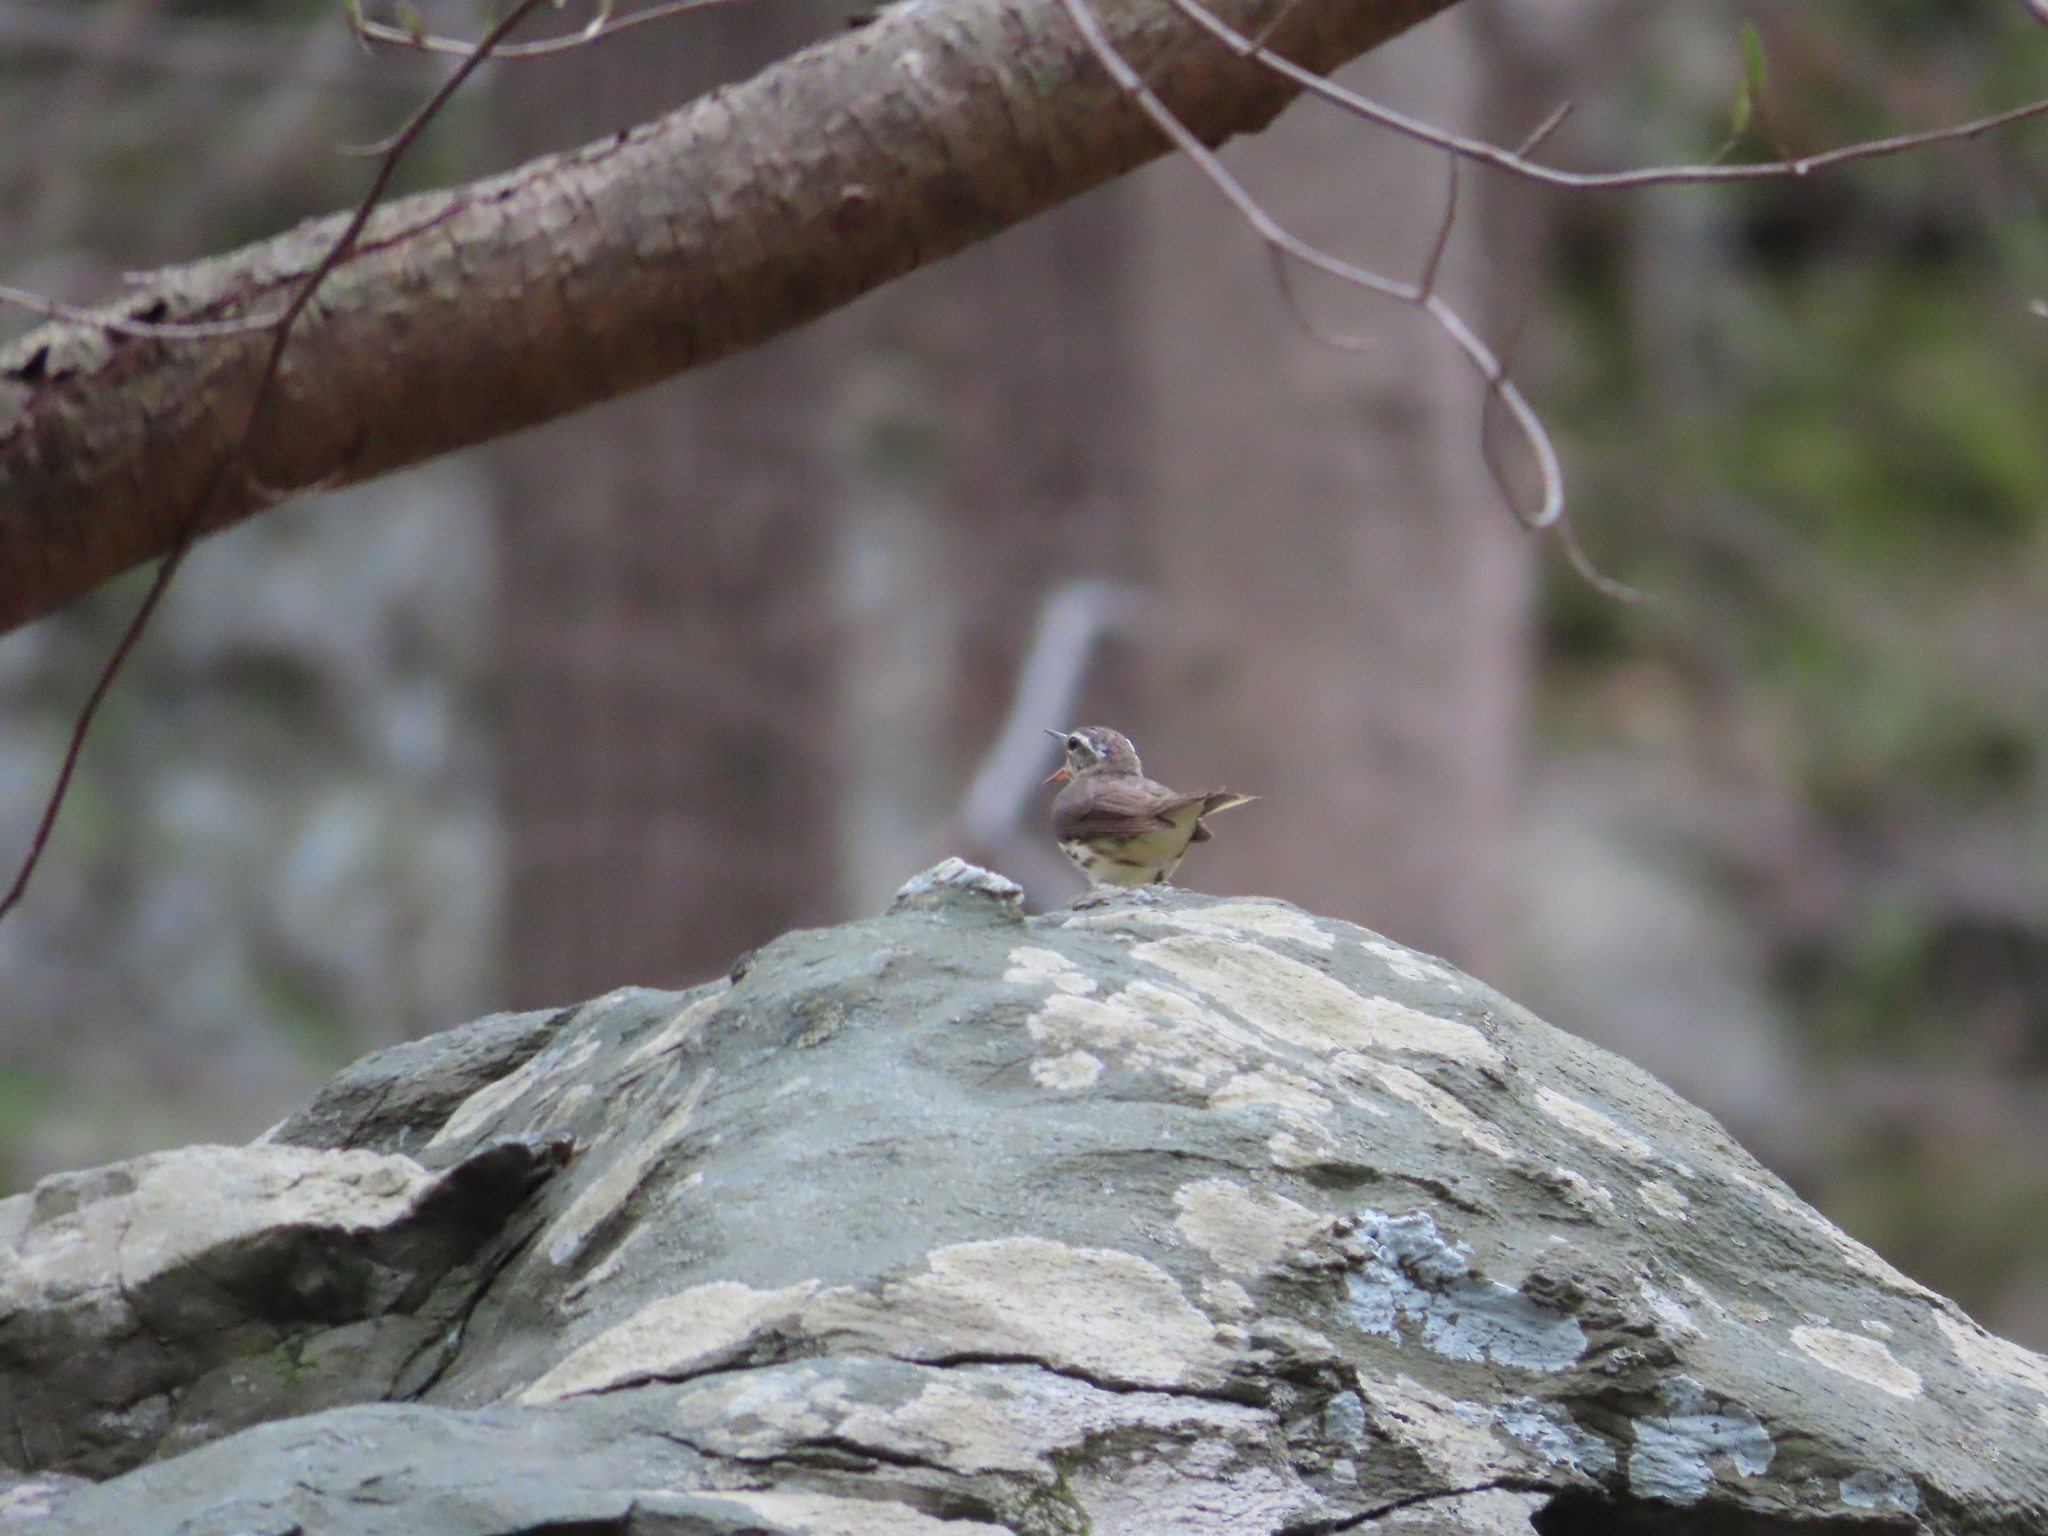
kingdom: Animalia
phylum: Chordata
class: Aves
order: Passeriformes
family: Parulidae
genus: Parkesia
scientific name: Parkesia motacilla
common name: Louisiana waterthrush
